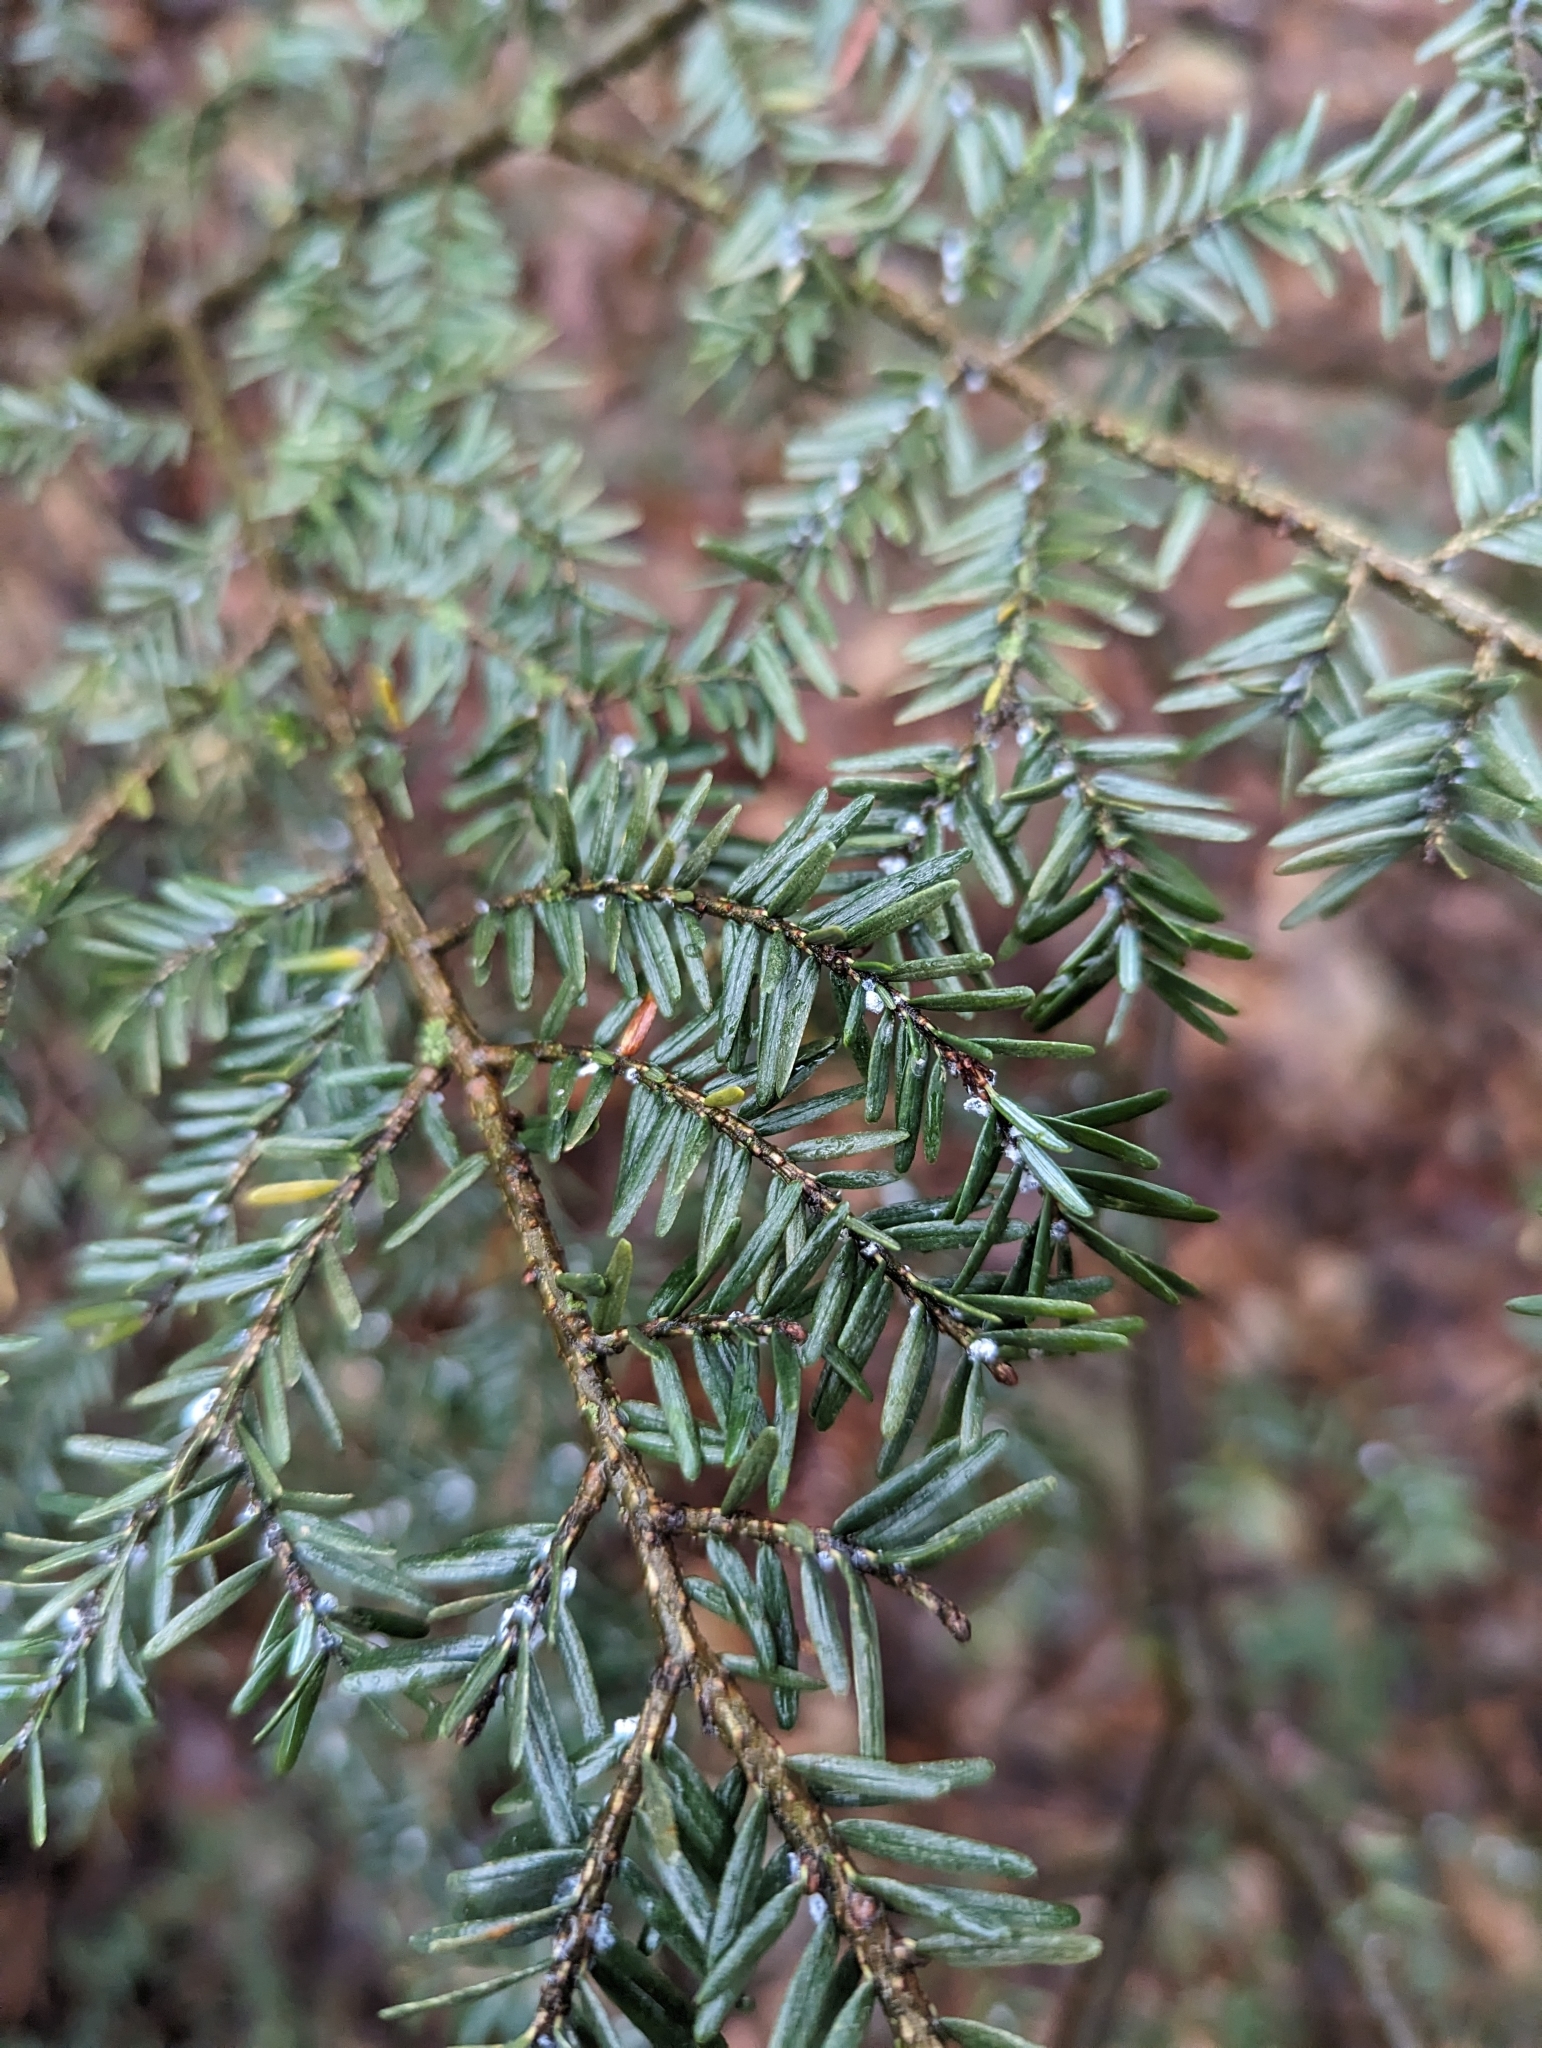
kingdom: Plantae
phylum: Tracheophyta
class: Pinopsida
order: Pinales
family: Pinaceae
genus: Tsuga
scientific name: Tsuga canadensis
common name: Eastern hemlock
